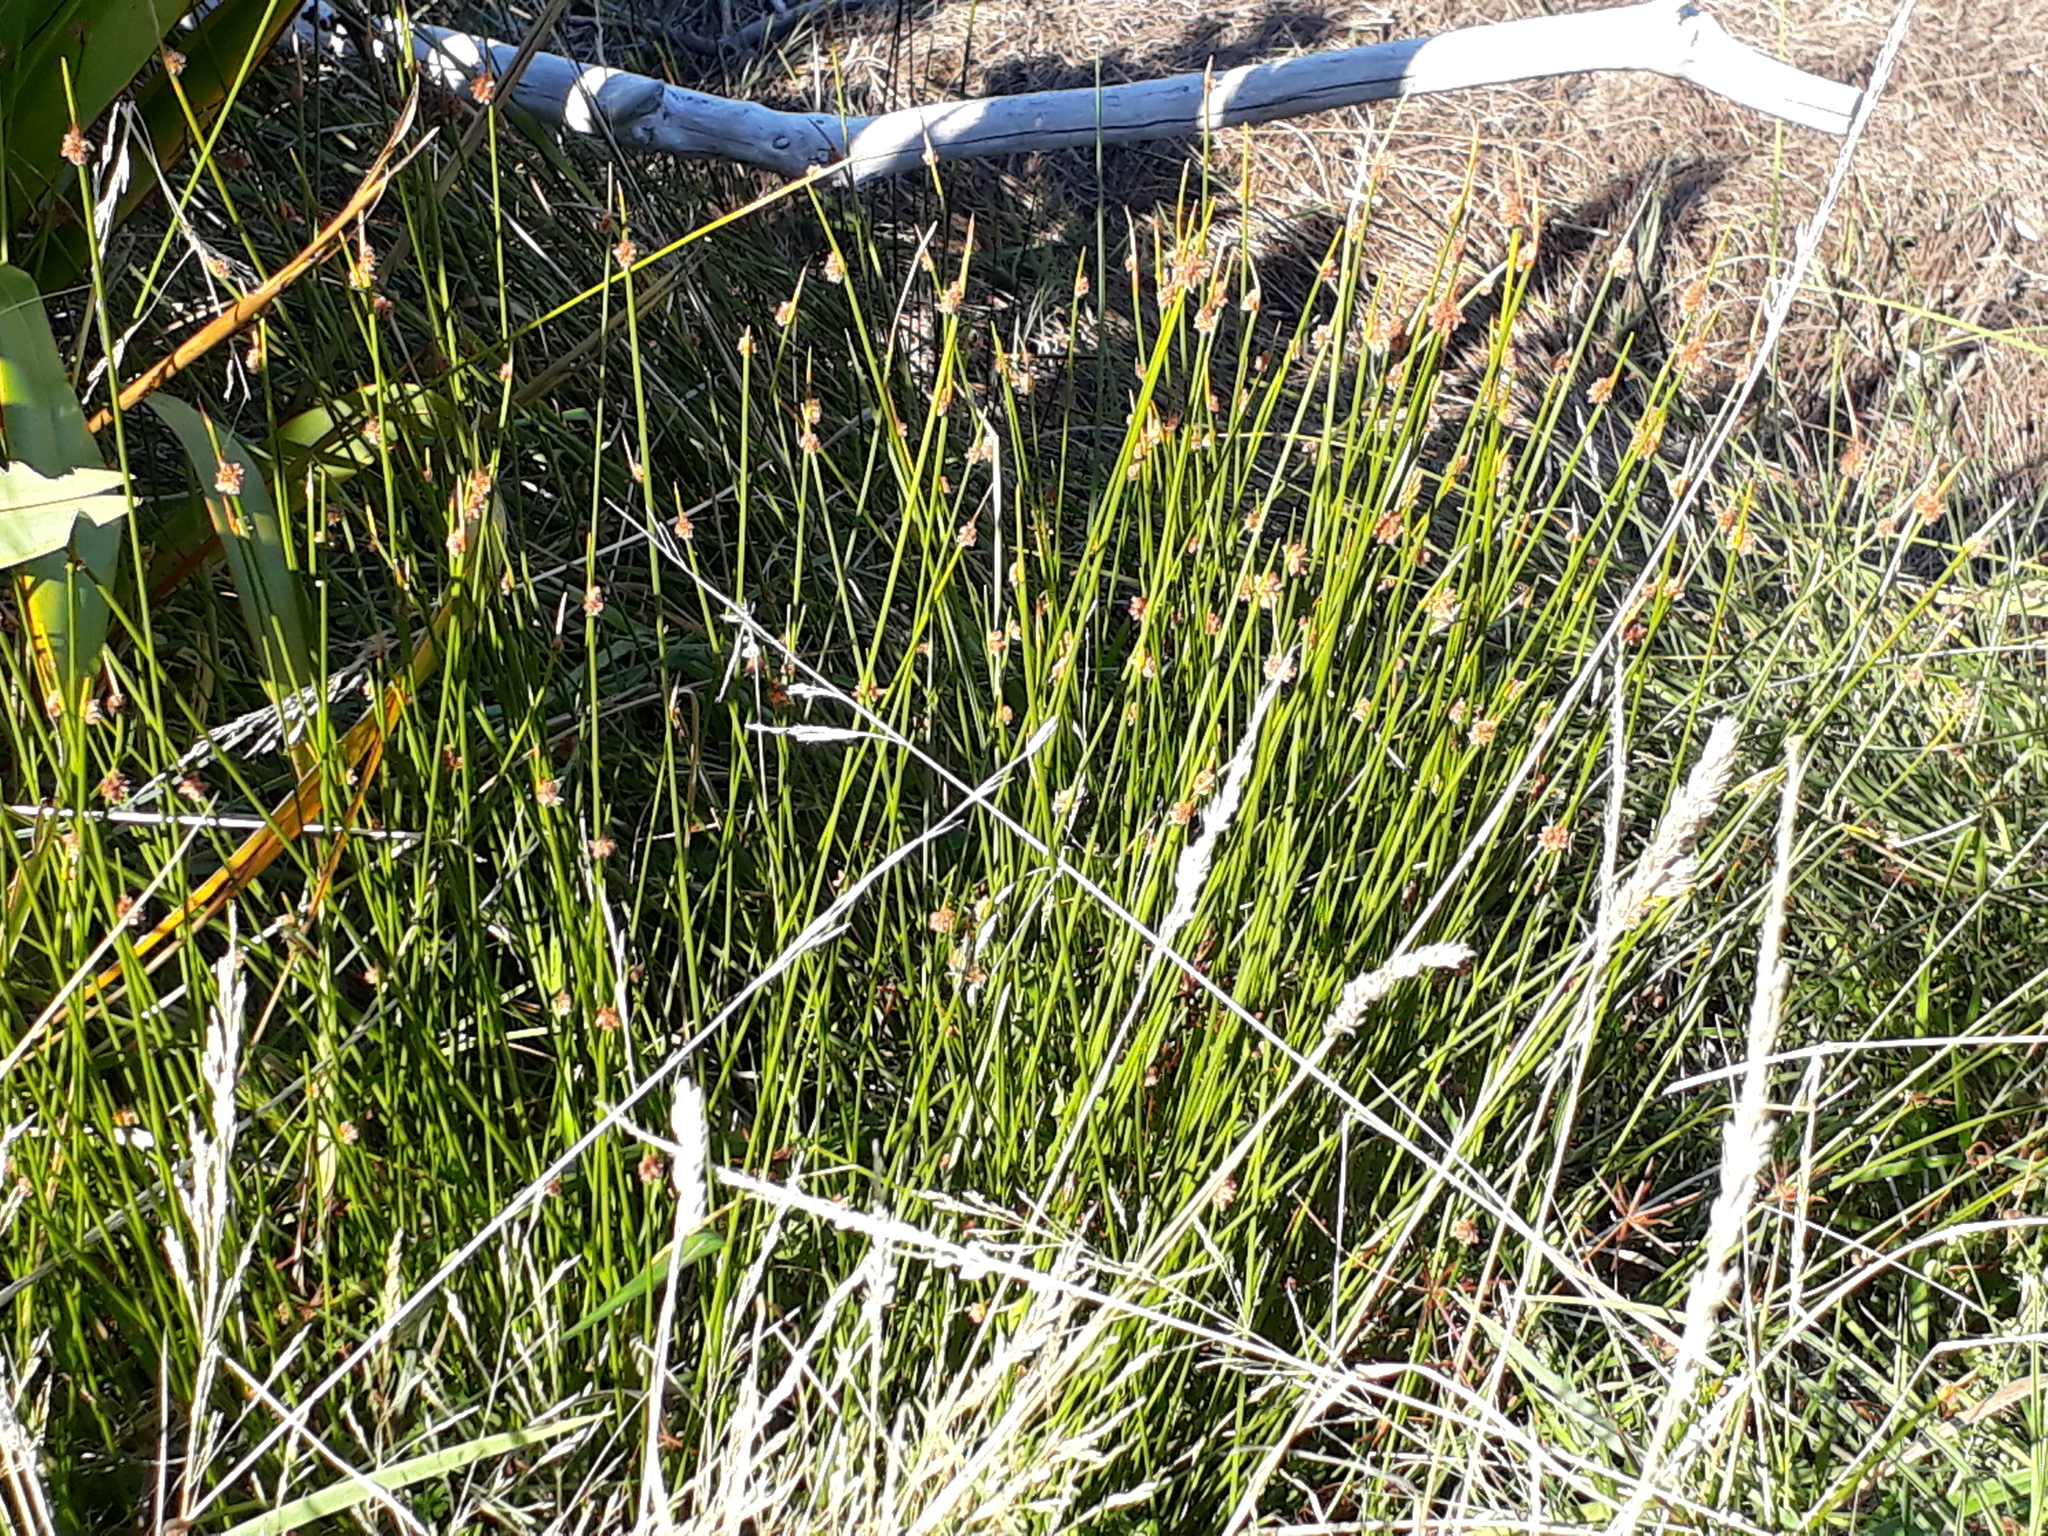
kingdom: Plantae
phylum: Tracheophyta
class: Liliopsida
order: Poales
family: Cyperaceae
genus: Ficinia
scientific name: Ficinia nodosa
